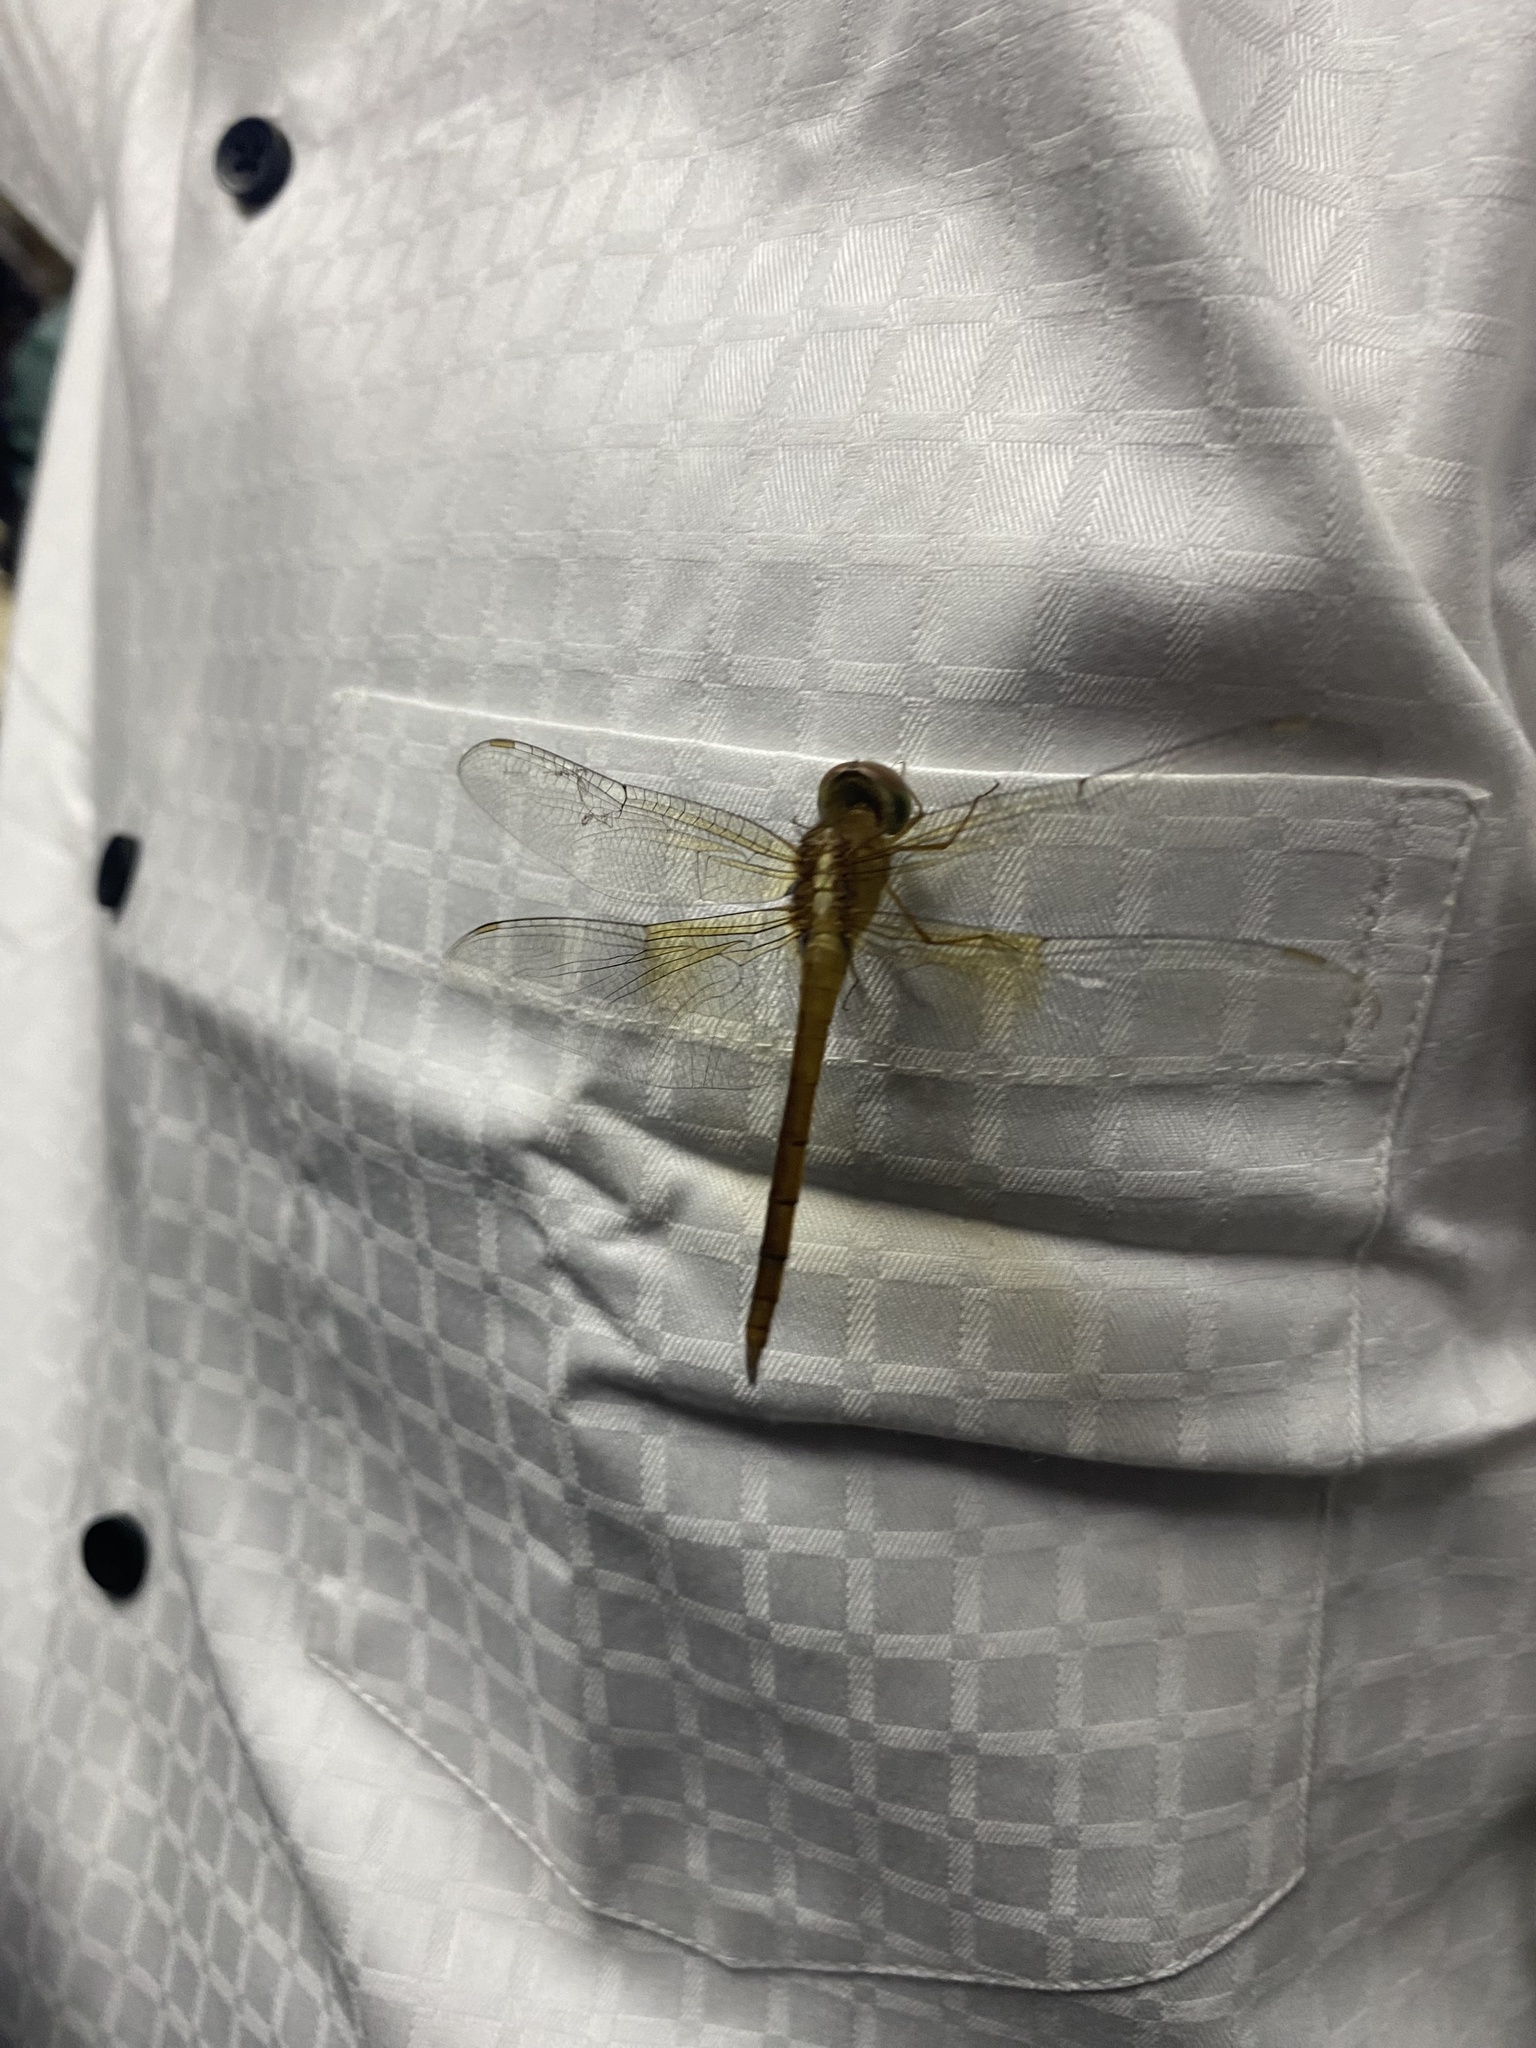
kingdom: Animalia
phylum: Arthropoda
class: Insecta
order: Odonata
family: Libellulidae
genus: Tholymis
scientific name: Tholymis tillarga
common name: Coral-tailed cloud wing
